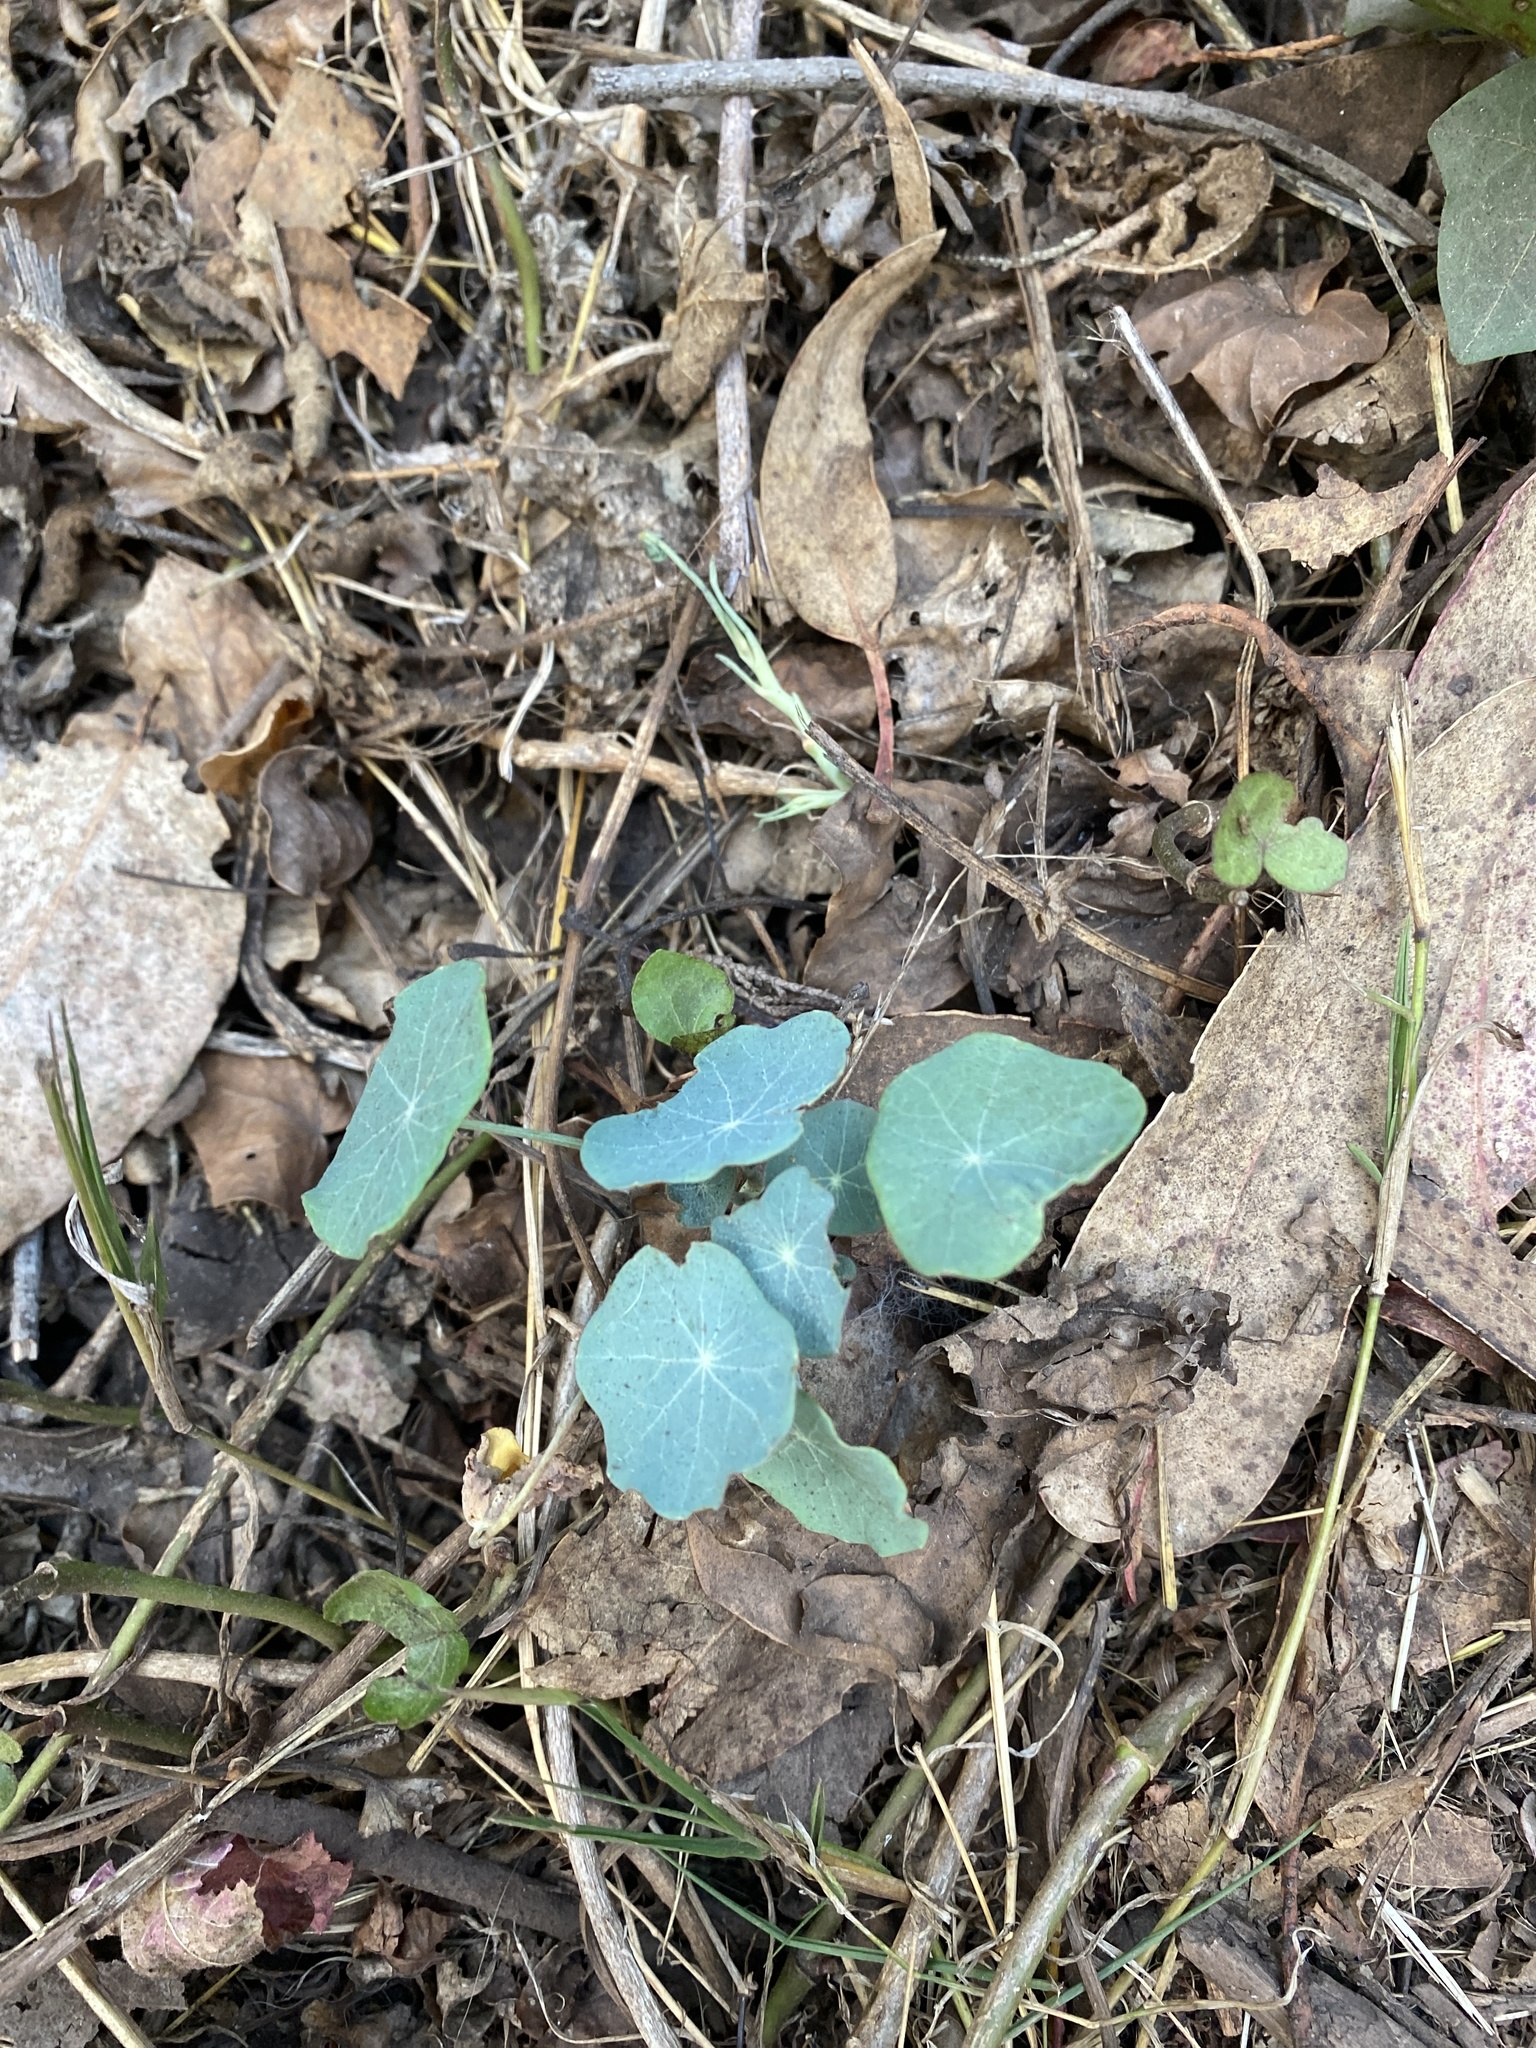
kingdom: Plantae
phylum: Tracheophyta
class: Magnoliopsida
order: Brassicales
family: Tropaeolaceae
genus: Tropaeolum
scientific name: Tropaeolum majus
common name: Nasturtium
